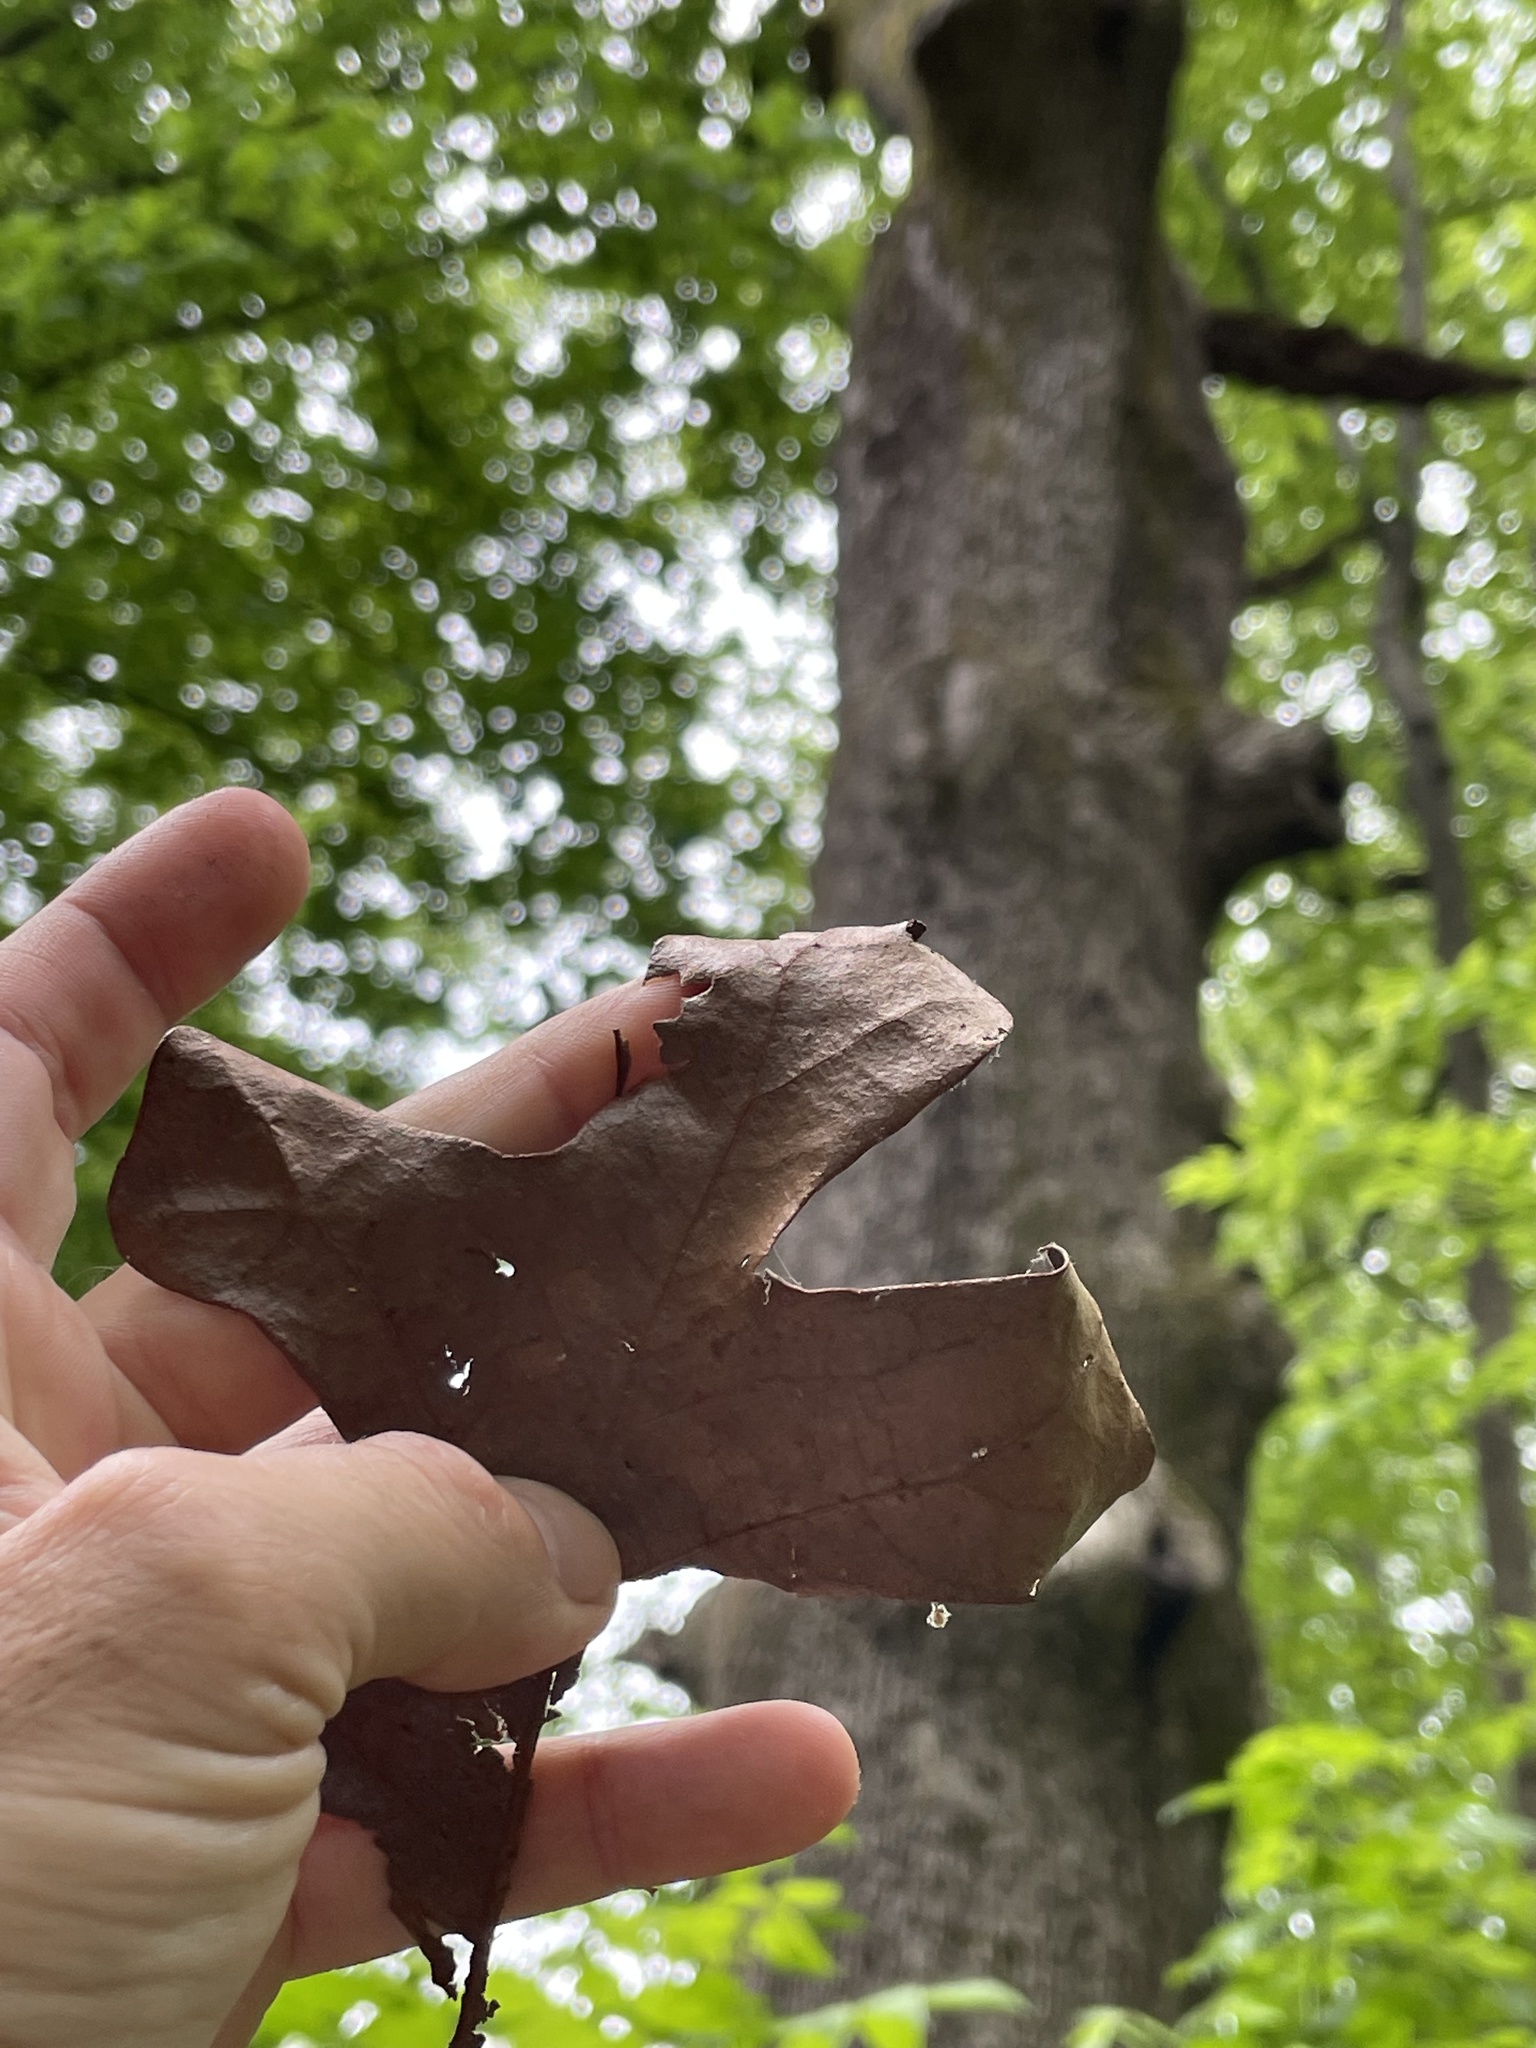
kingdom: Plantae
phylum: Tracheophyta
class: Magnoliopsida
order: Fagales
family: Fagaceae
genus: Quercus
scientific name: Quercus stellata
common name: Post oak
